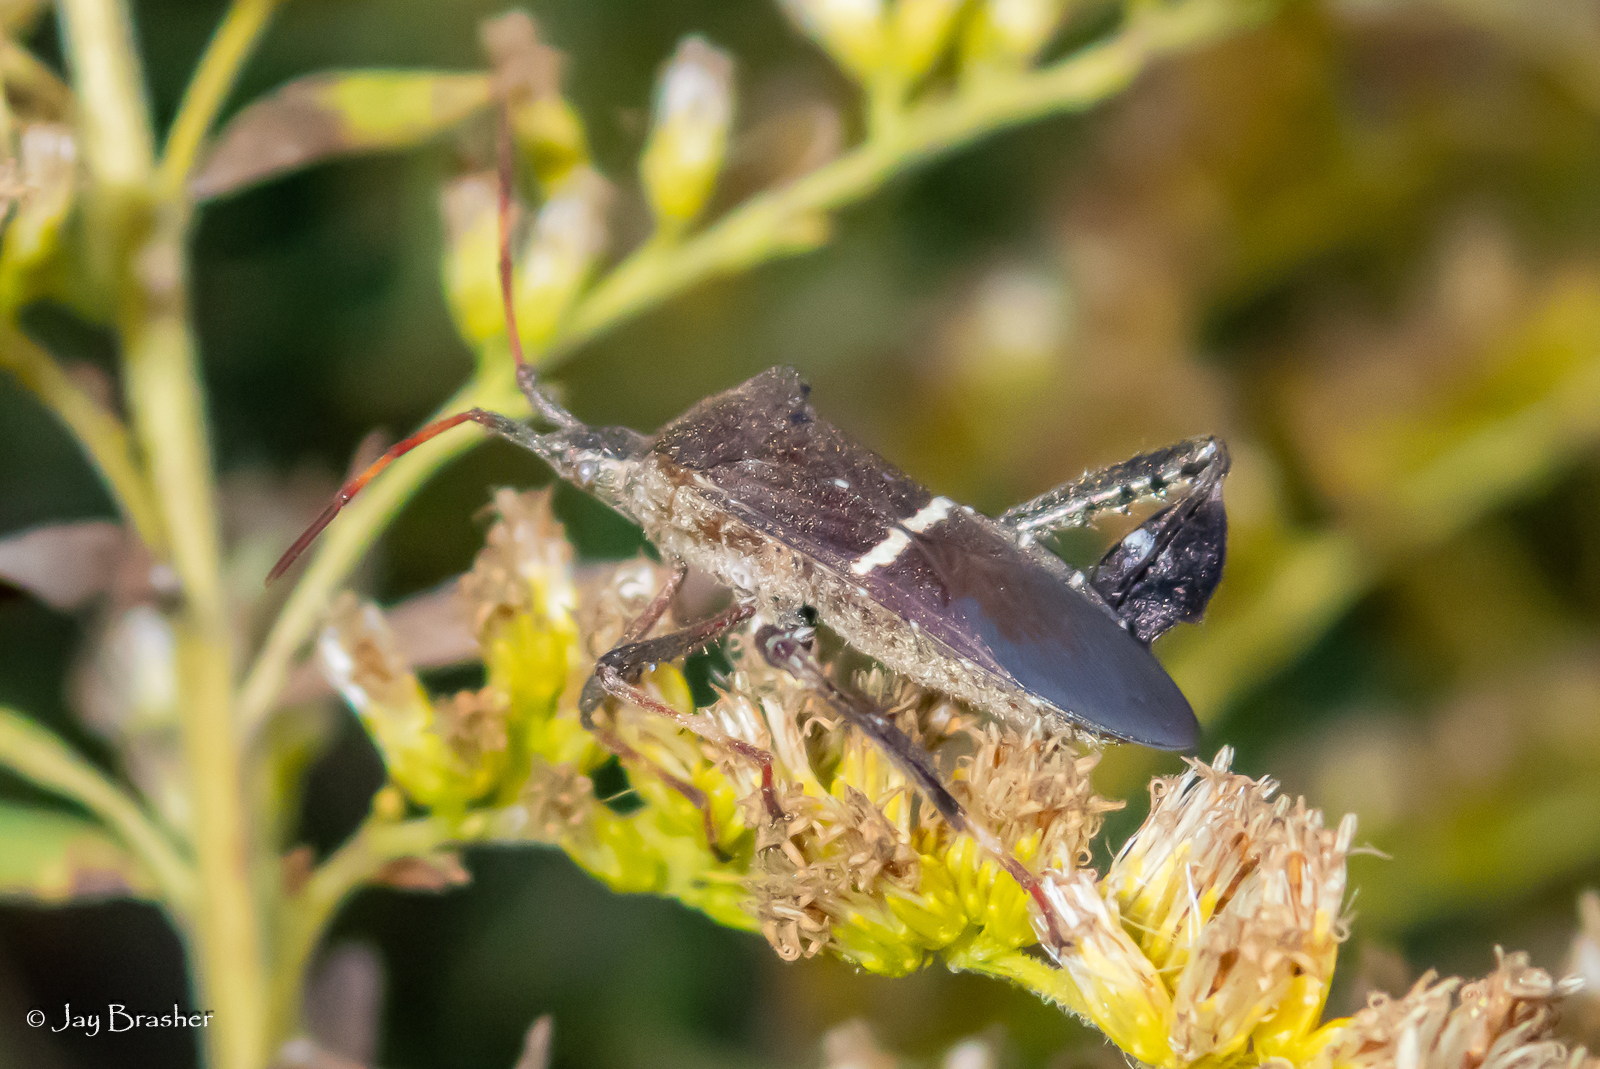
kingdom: Animalia
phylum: Arthropoda
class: Insecta
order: Hemiptera
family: Coreidae
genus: Leptoglossus
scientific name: Leptoglossus phyllopus
